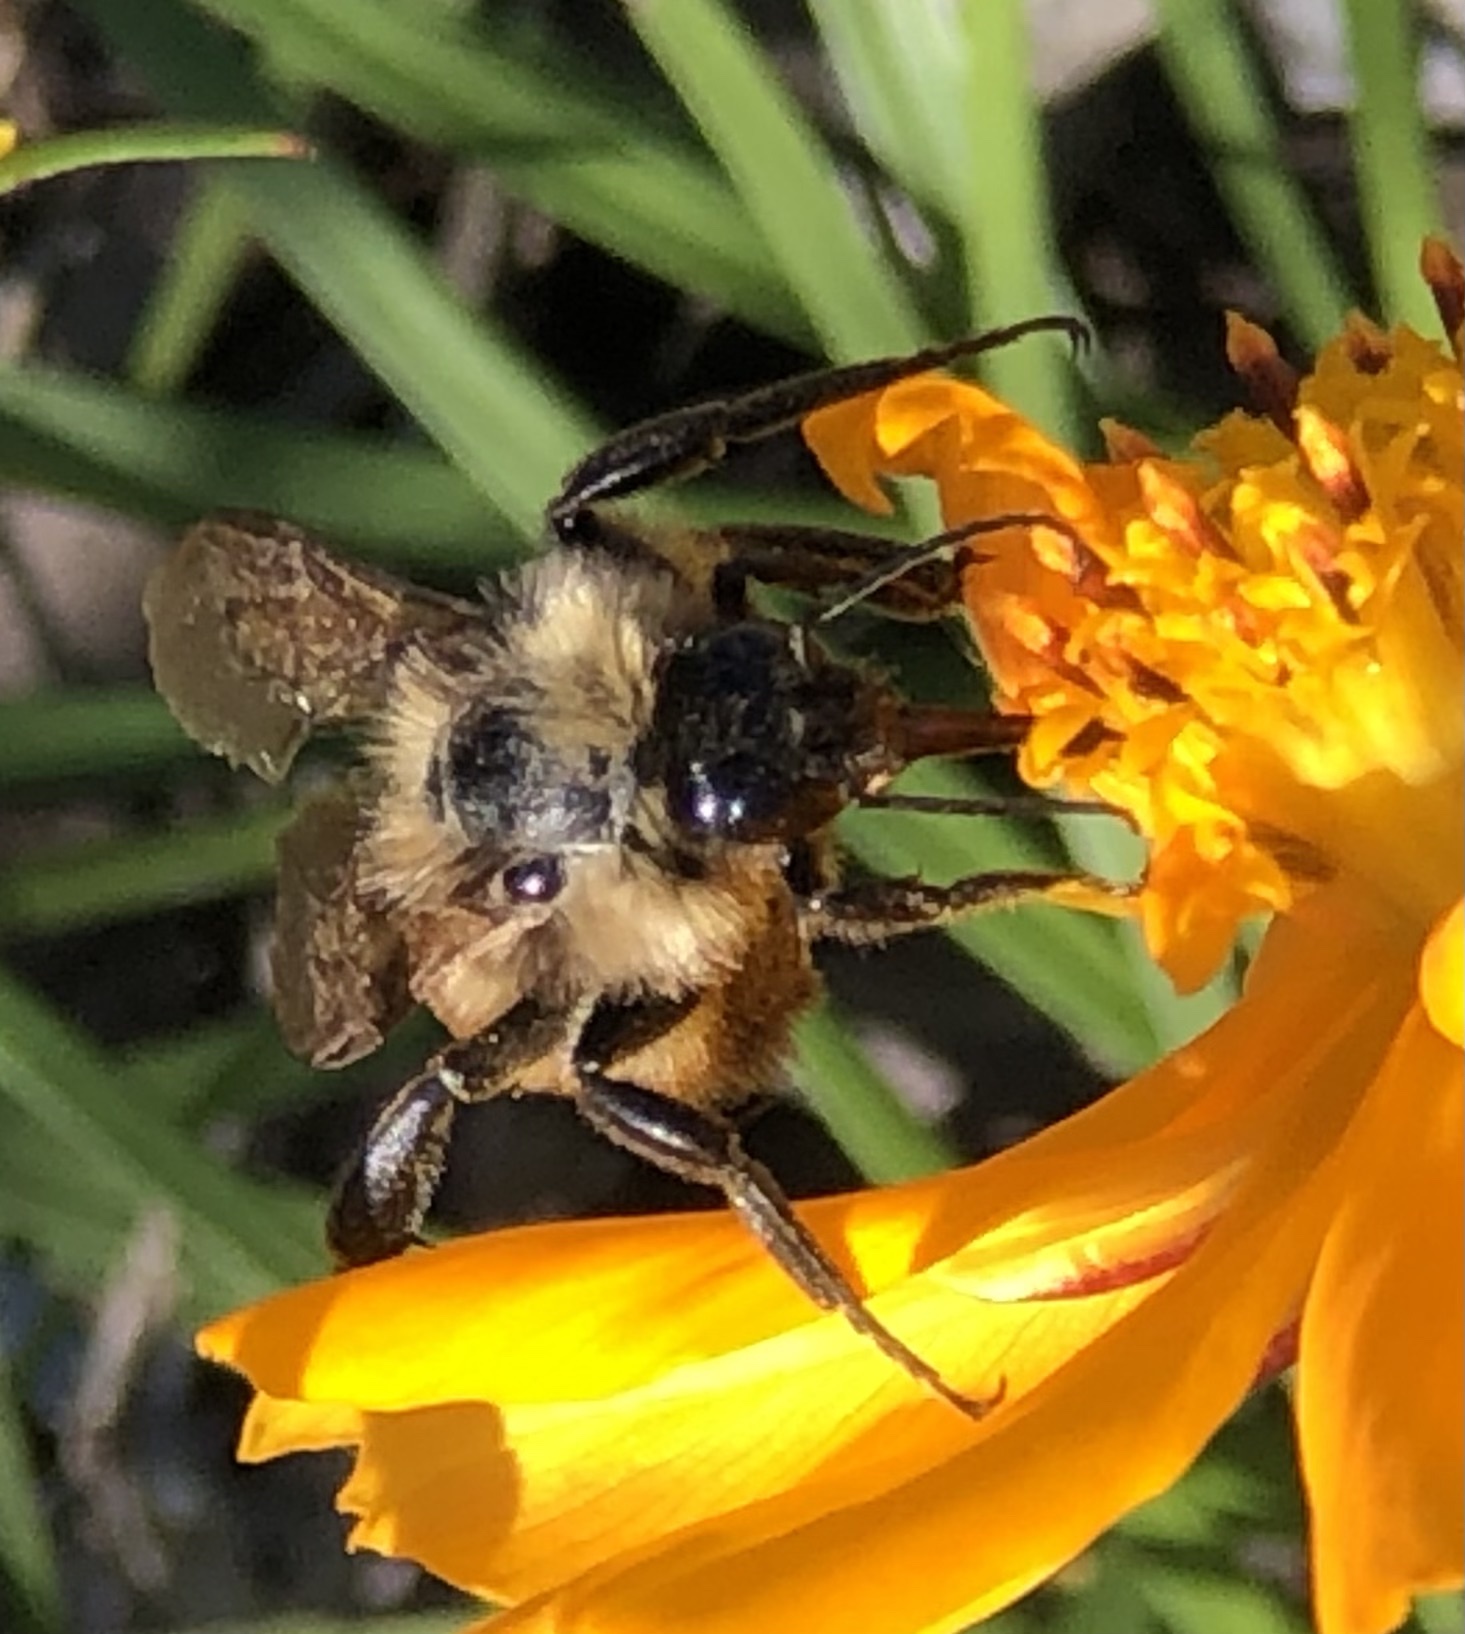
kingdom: Animalia
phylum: Arthropoda
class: Insecta
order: Hymenoptera
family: Apidae
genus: Bombus
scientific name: Bombus pensylvanicus
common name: Bumble bee
